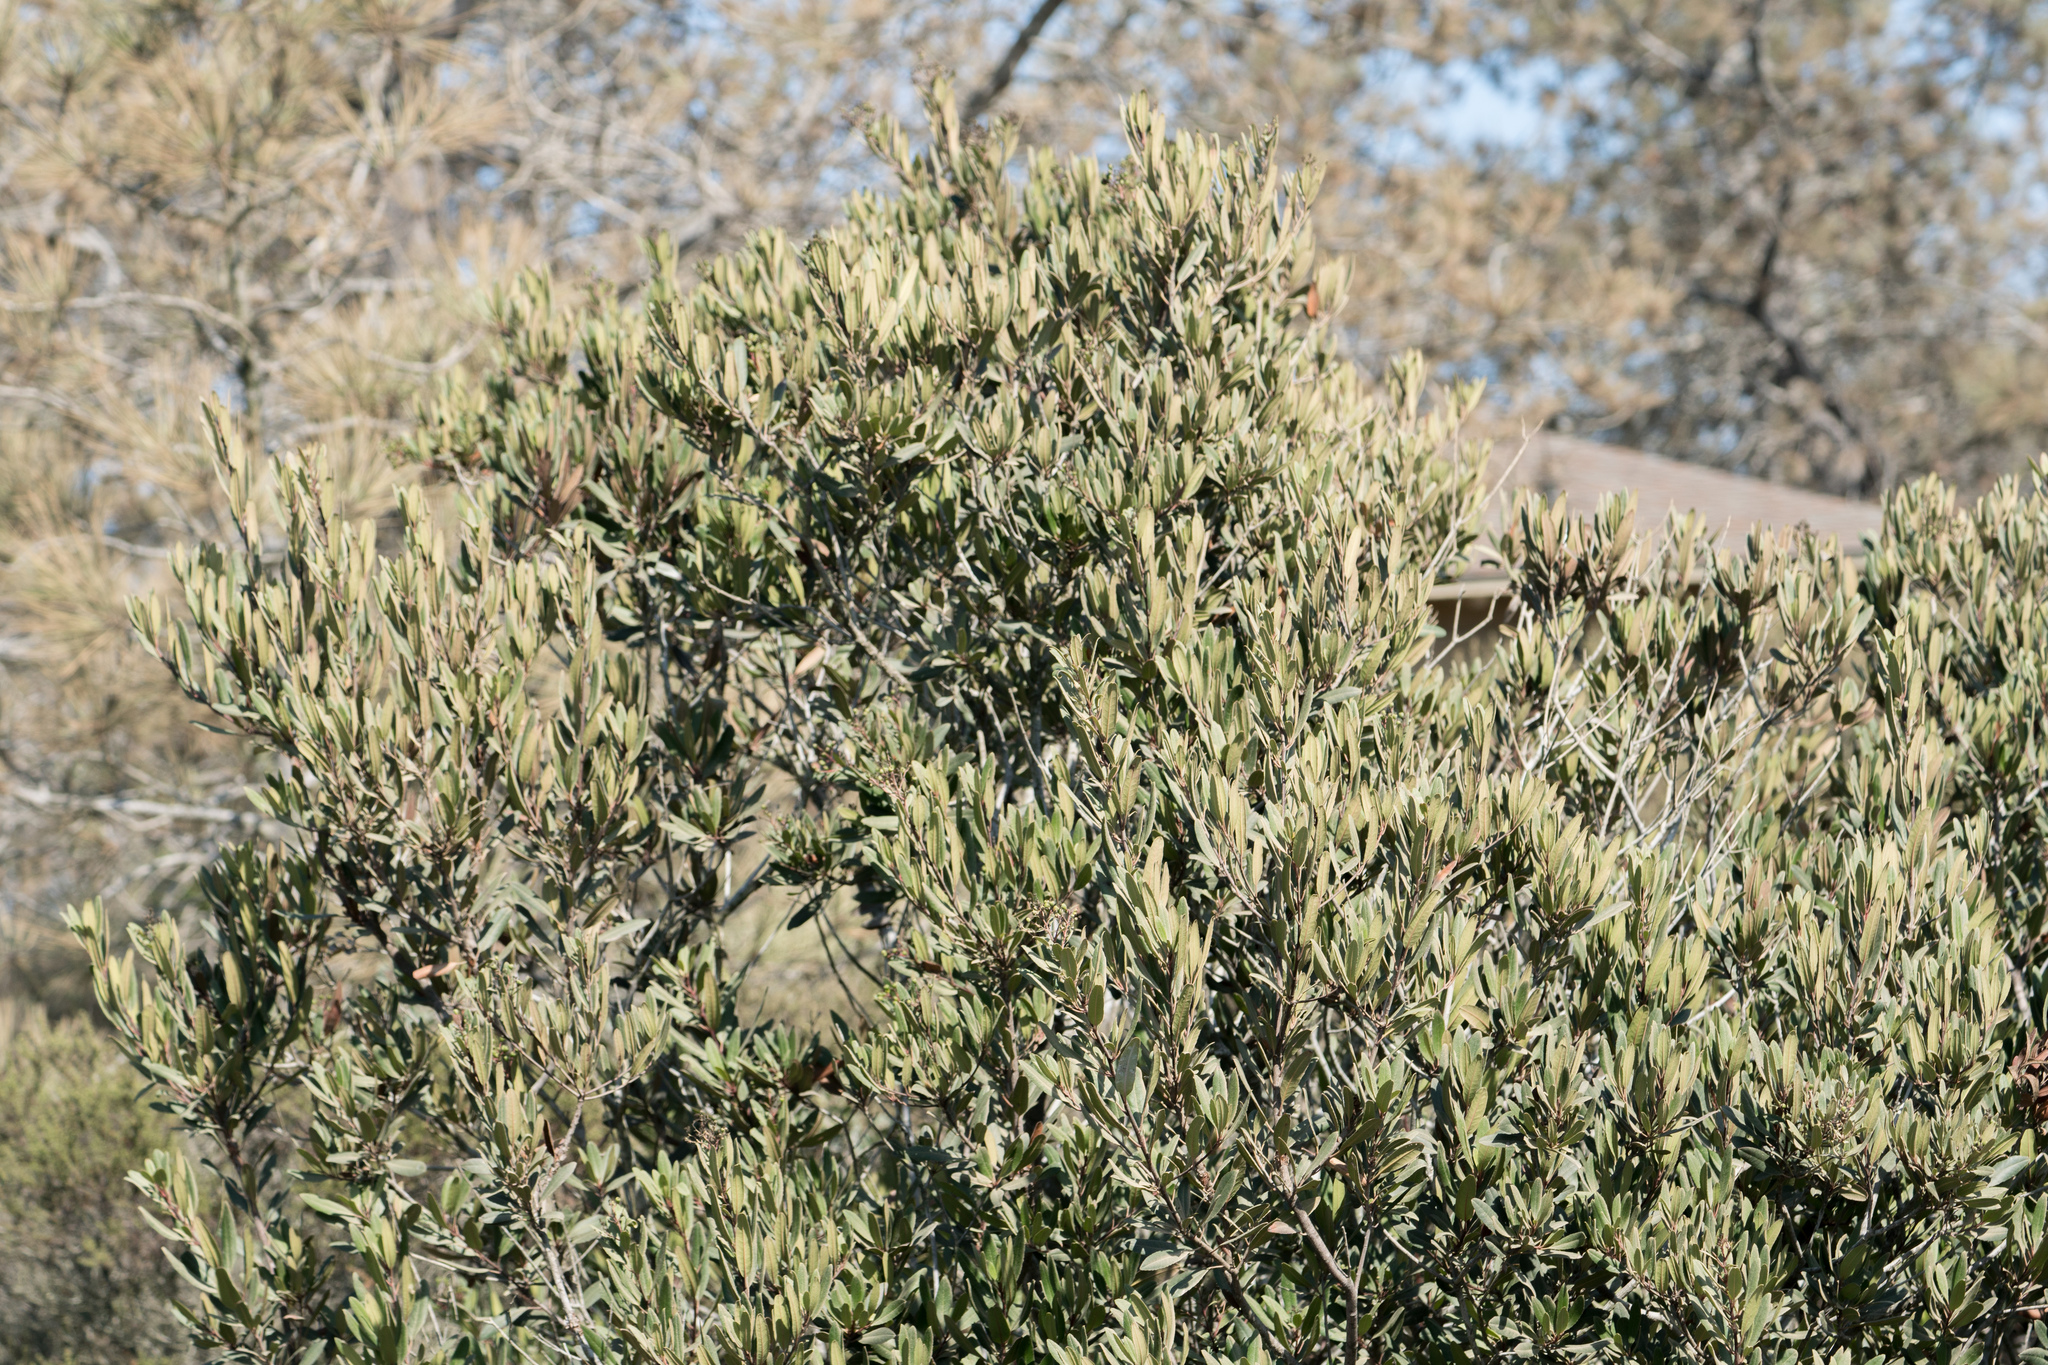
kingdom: Plantae
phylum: Tracheophyta
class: Magnoliopsida
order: Rosales
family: Rosaceae
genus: Heteromeles
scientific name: Heteromeles arbutifolia
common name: California-holly
